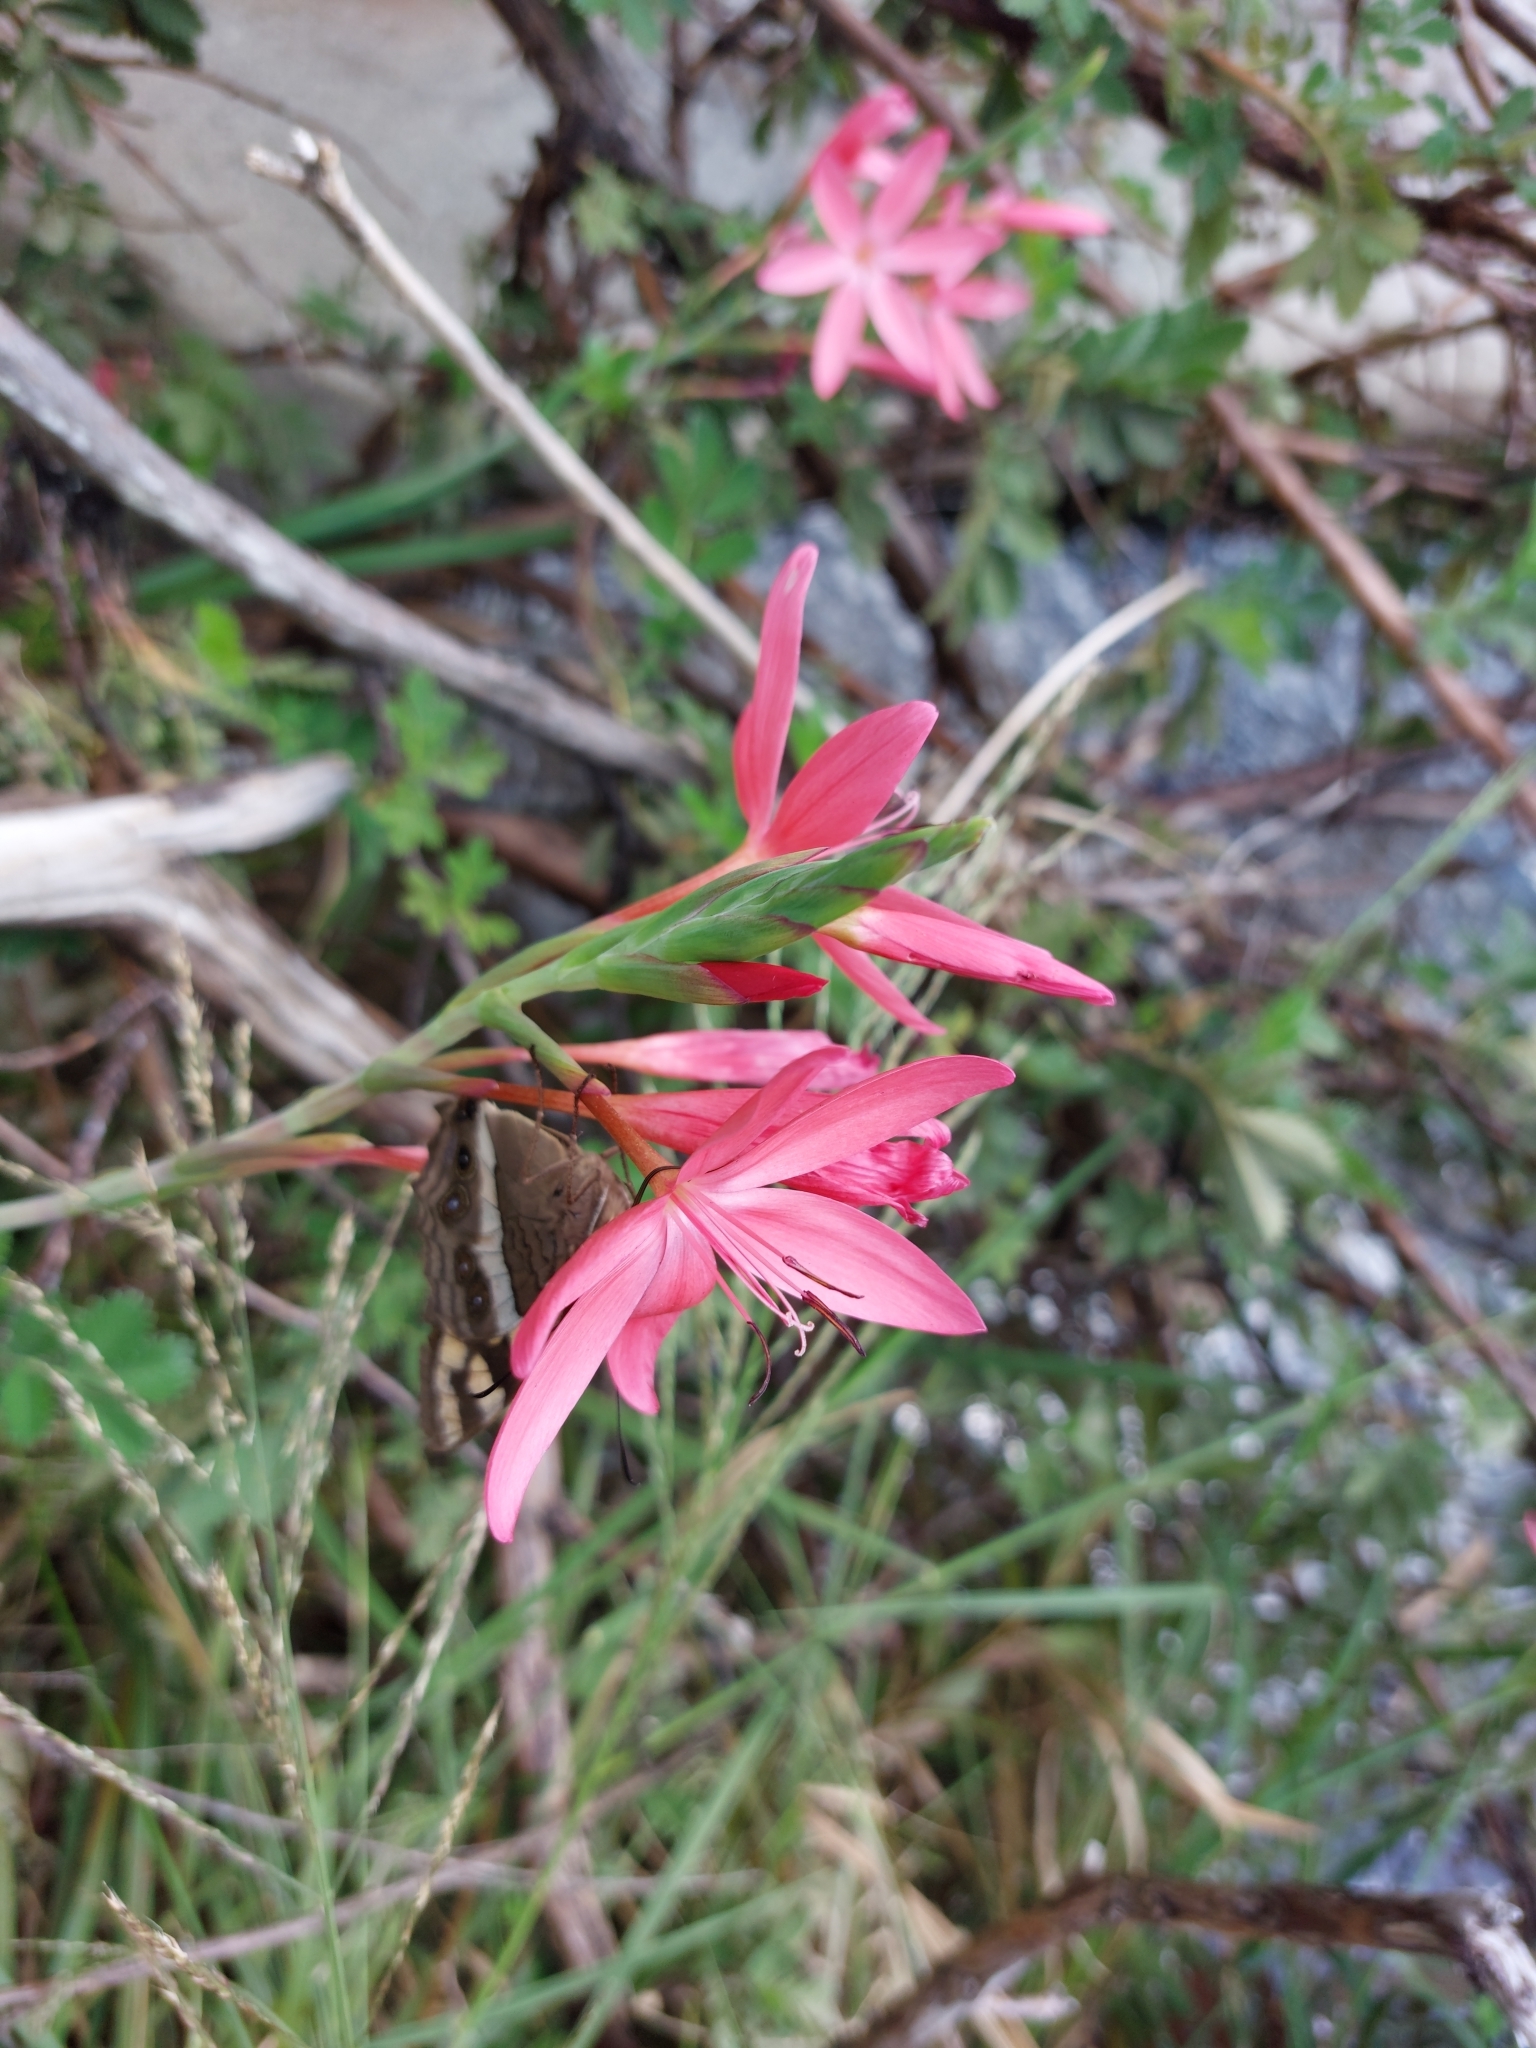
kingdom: Plantae
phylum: Tracheophyta
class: Liliopsida
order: Asparagales
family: Iridaceae
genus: Hesperantha
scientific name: Hesperantha coccinea
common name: River-lily
